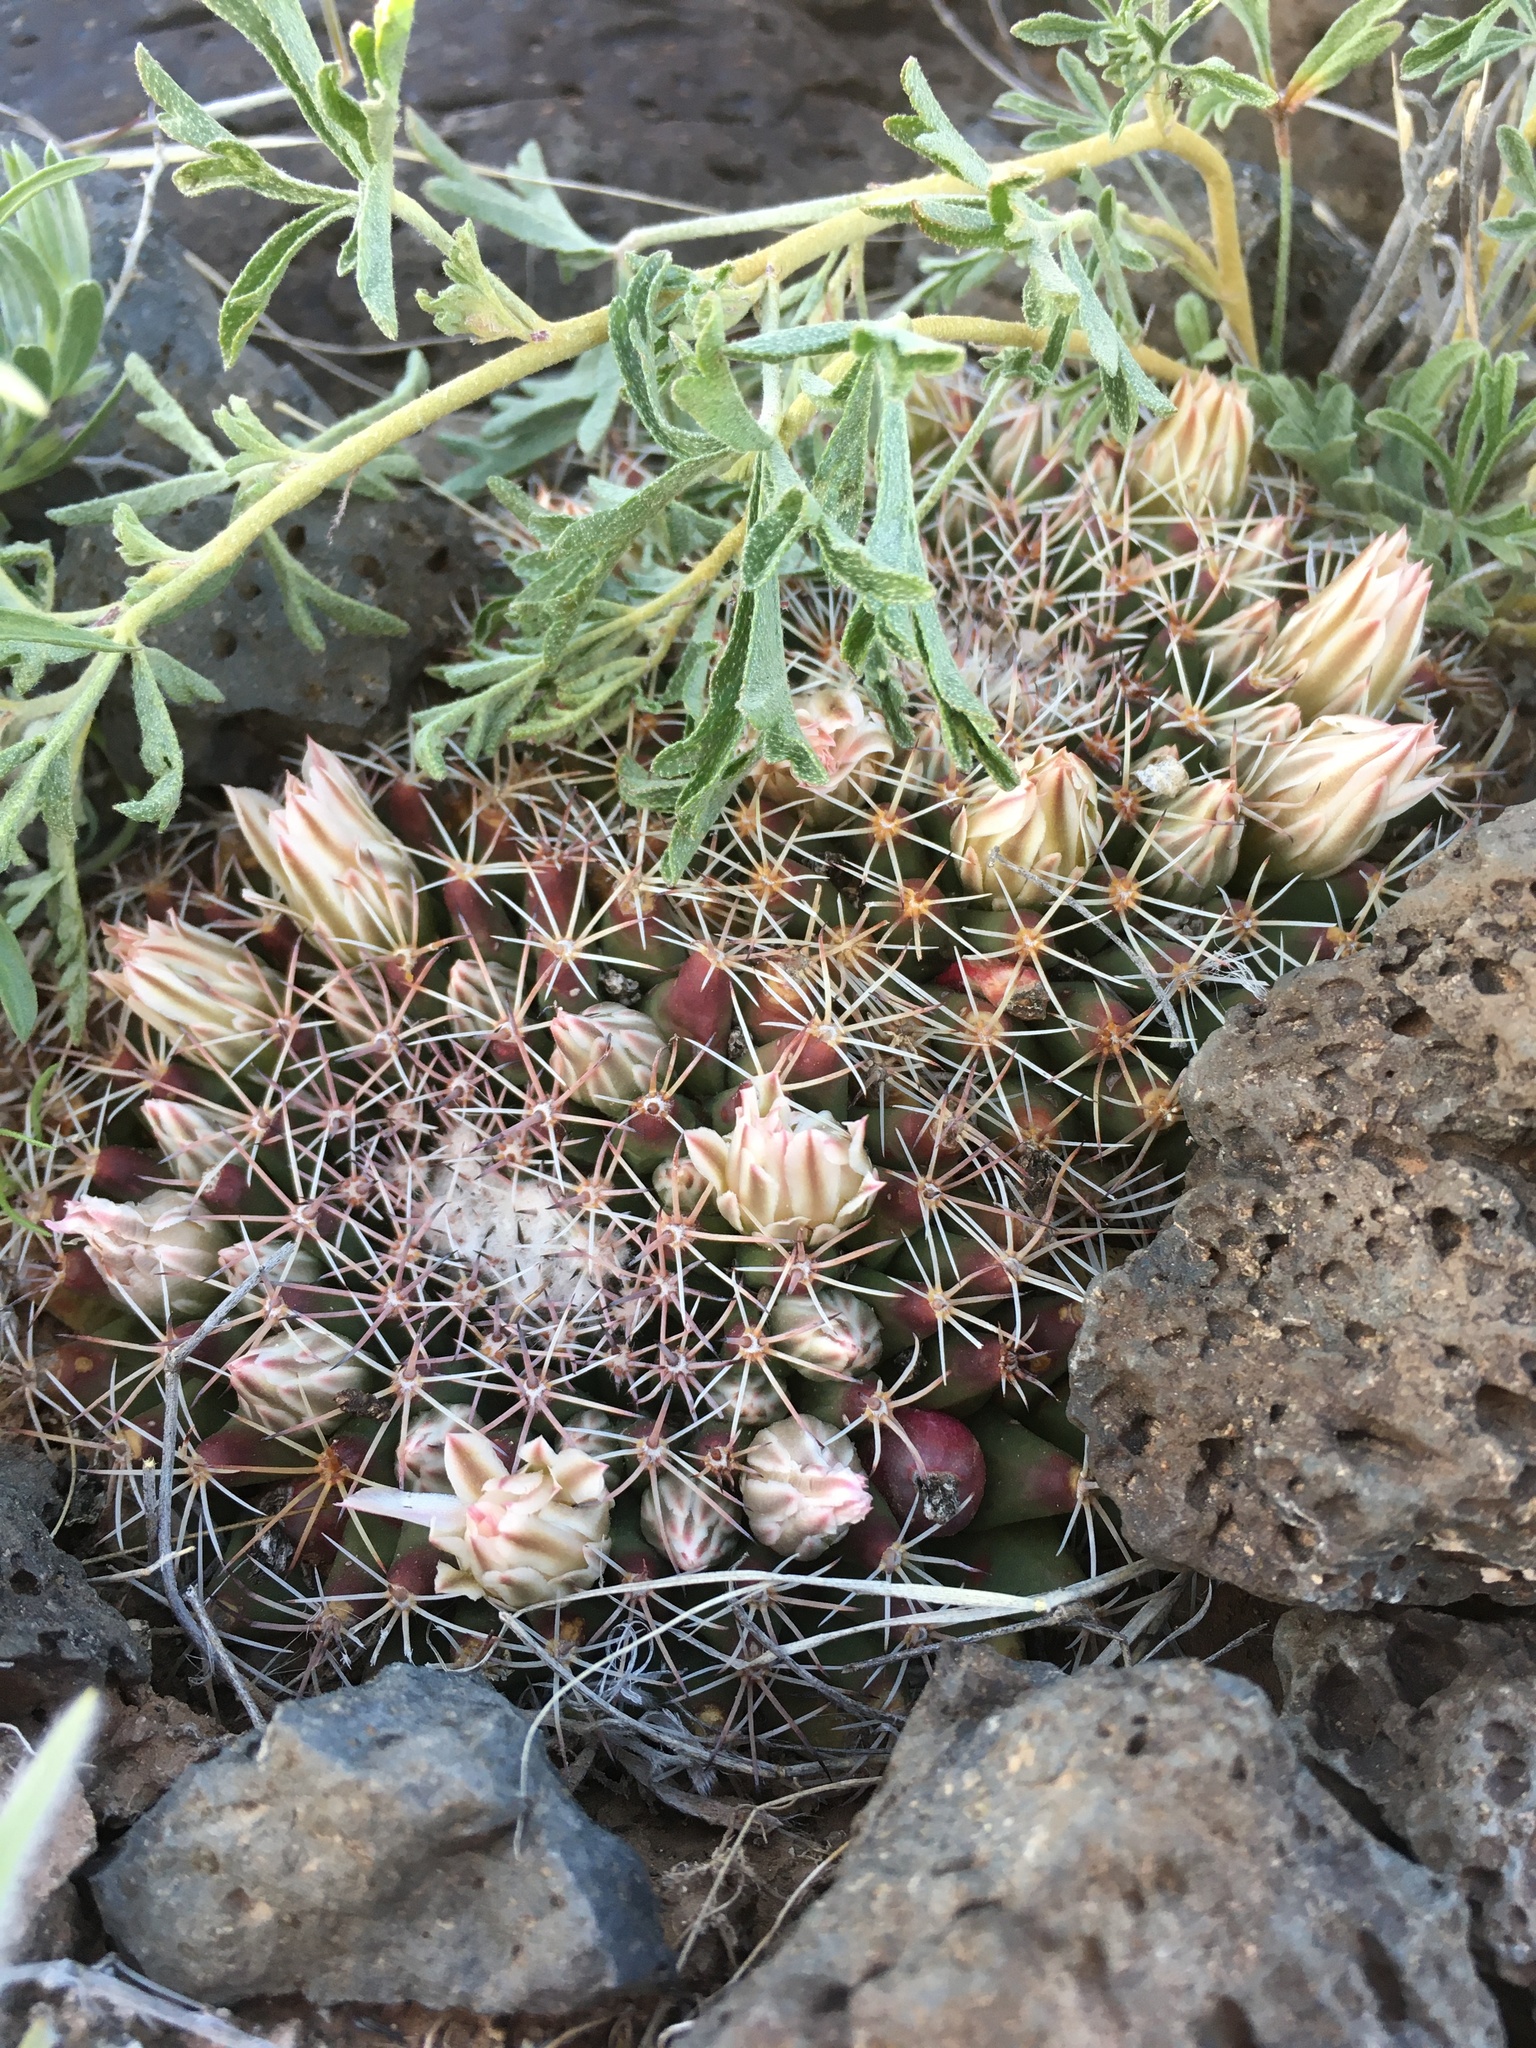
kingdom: Plantae
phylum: Tracheophyta
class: Magnoliopsida
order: Caryophyllales
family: Cactaceae
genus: Mammillaria
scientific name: Mammillaria heyderi
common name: Little nipple cactus
